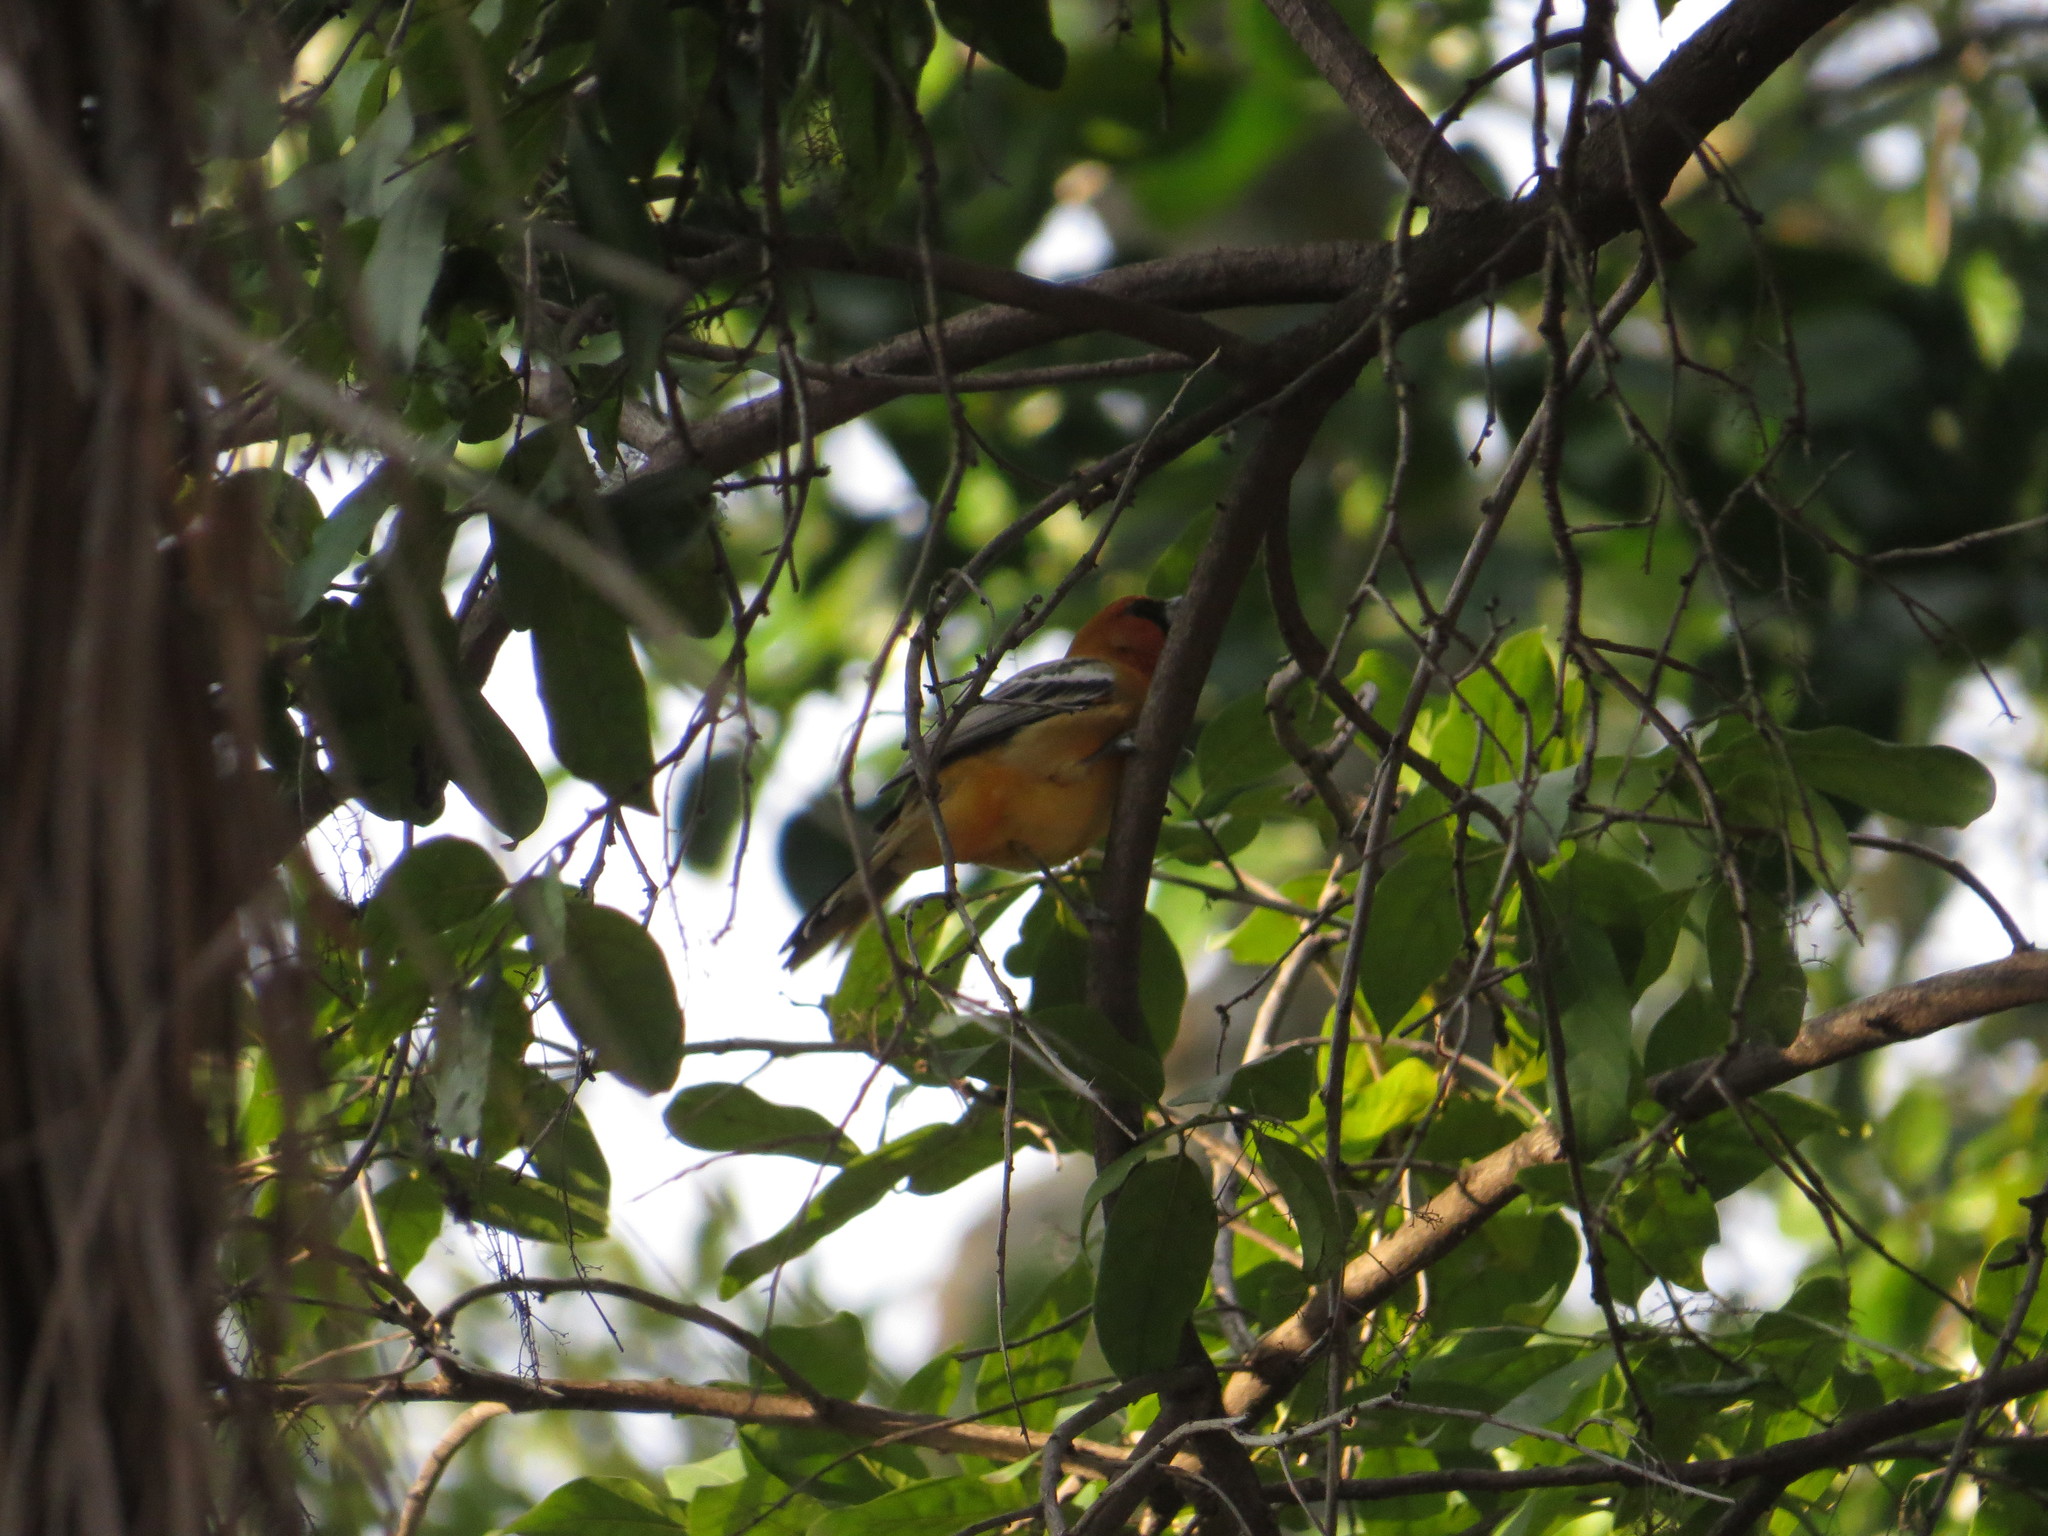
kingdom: Animalia
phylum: Chordata
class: Aves
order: Passeriformes
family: Icteridae
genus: Icterus
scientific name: Icterus pustulatus
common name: Streak-backed oriole
